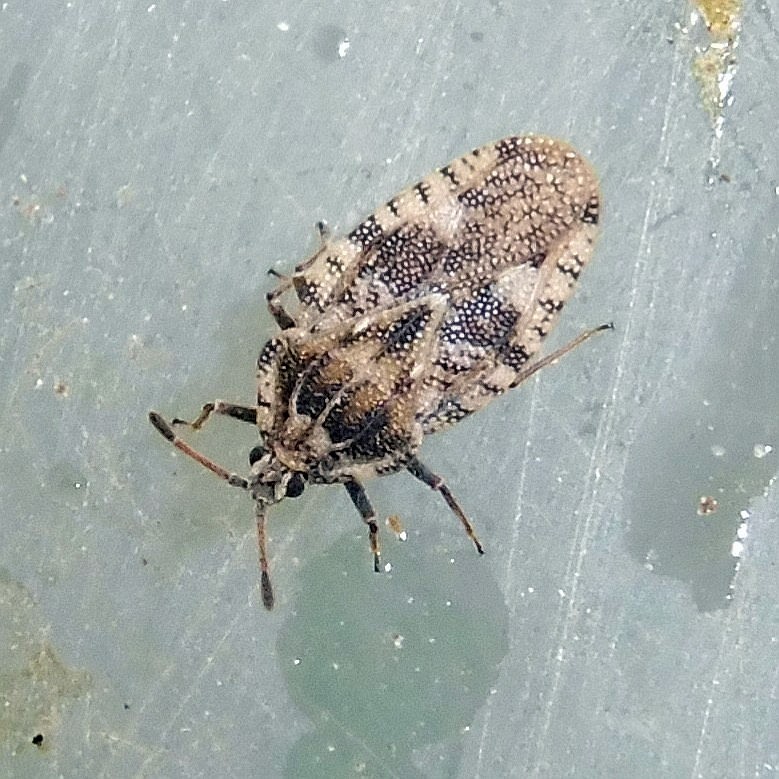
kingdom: Animalia
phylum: Arthropoda
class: Insecta
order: Hemiptera
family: Tingidae
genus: Tingis
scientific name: Tingis cardui
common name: Spear thistle lacebug
